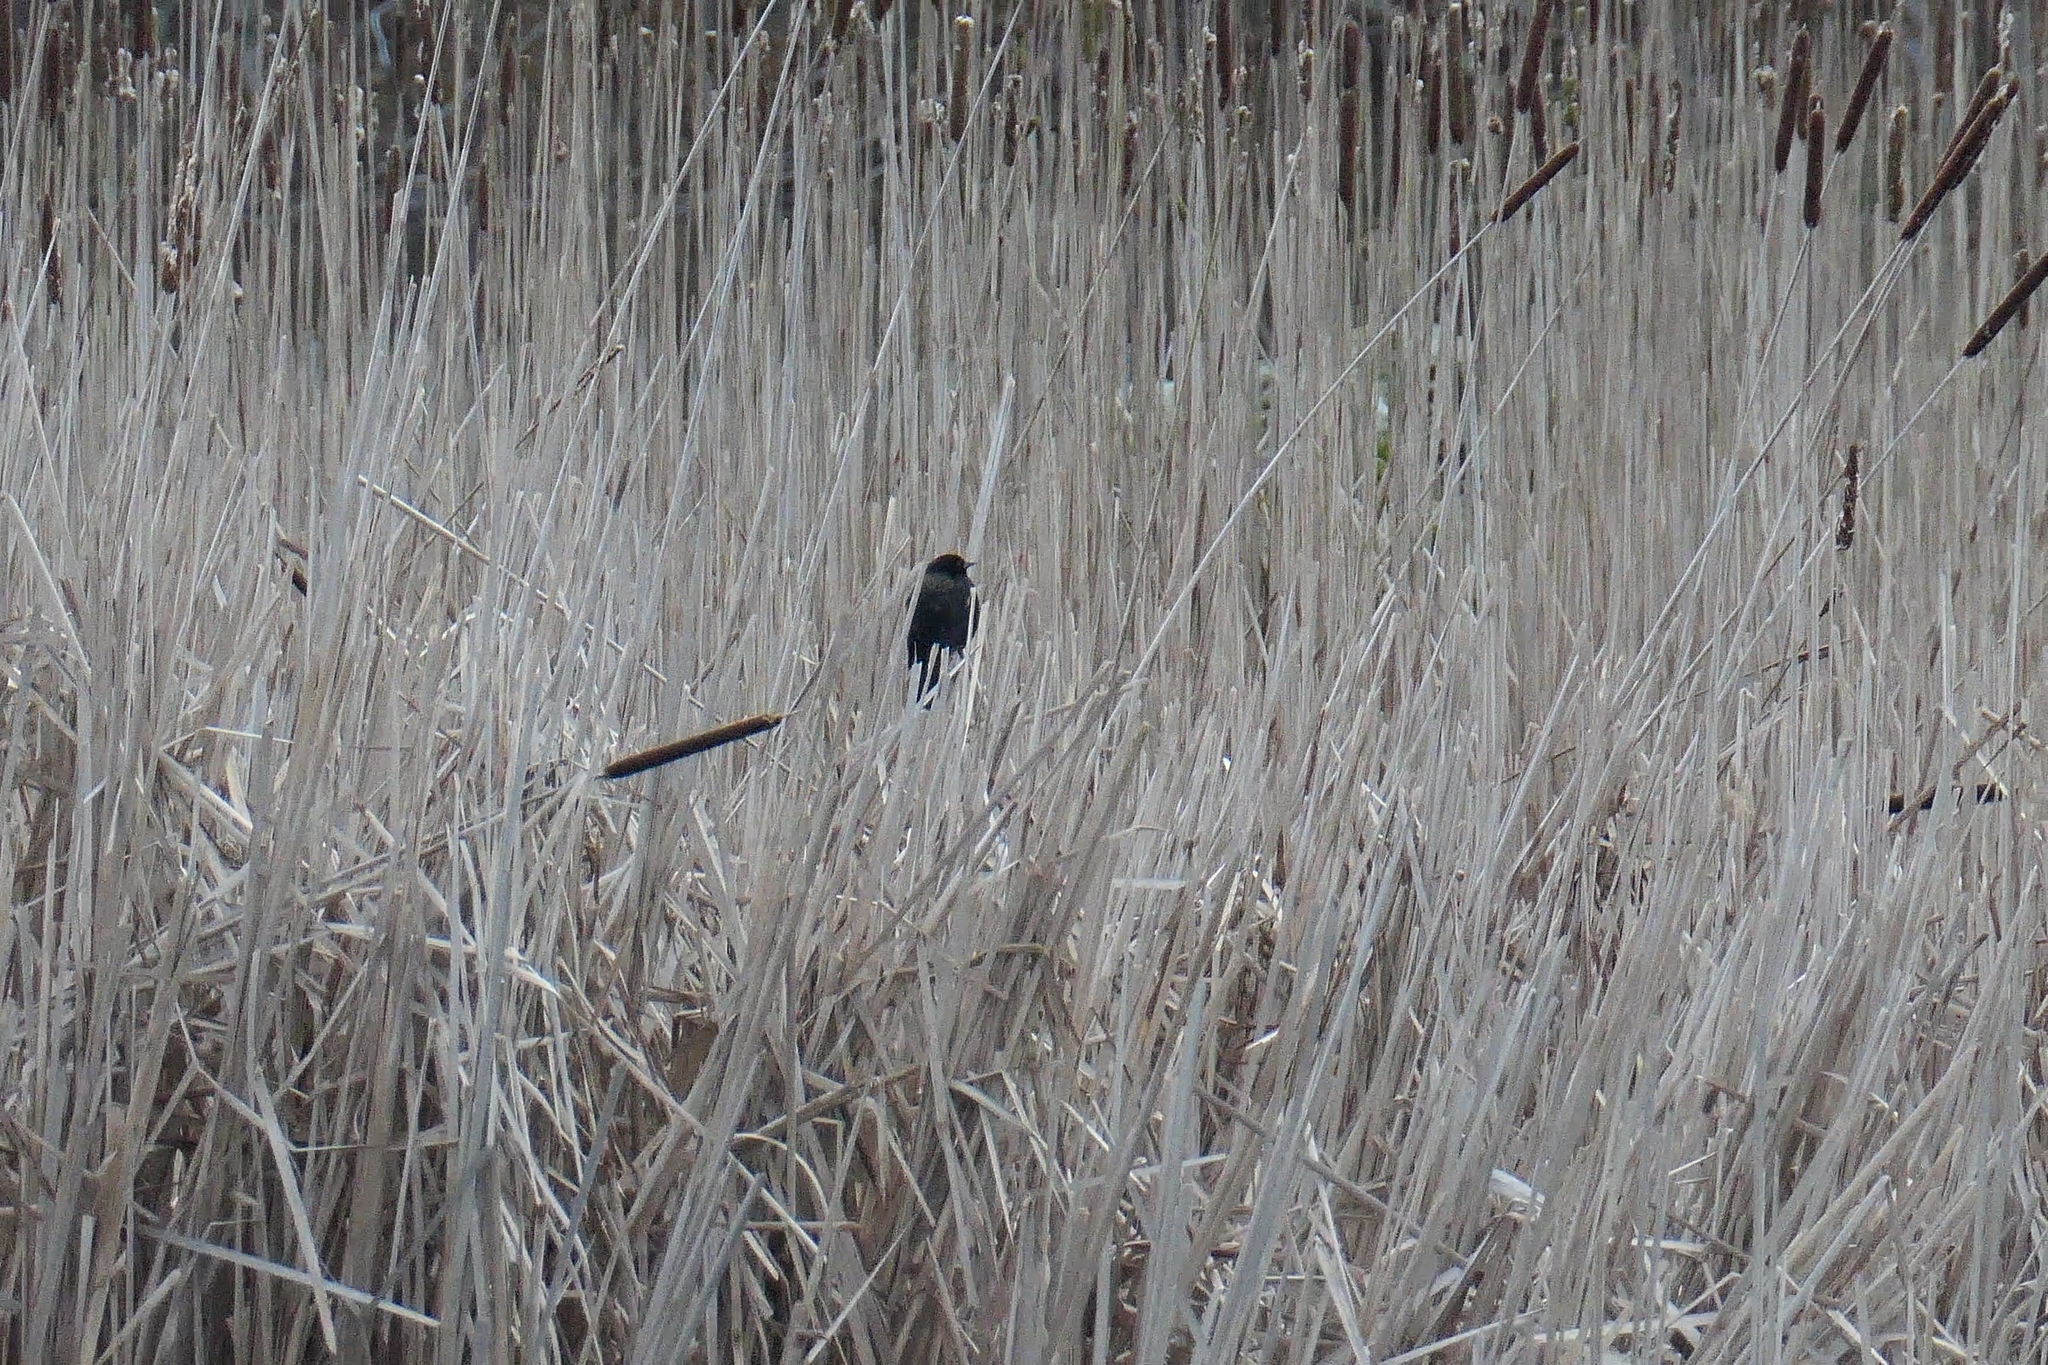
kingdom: Animalia
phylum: Chordata
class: Aves
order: Passeriformes
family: Icteridae
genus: Agelaius
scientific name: Agelaius phoeniceus
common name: Red-winged blackbird
